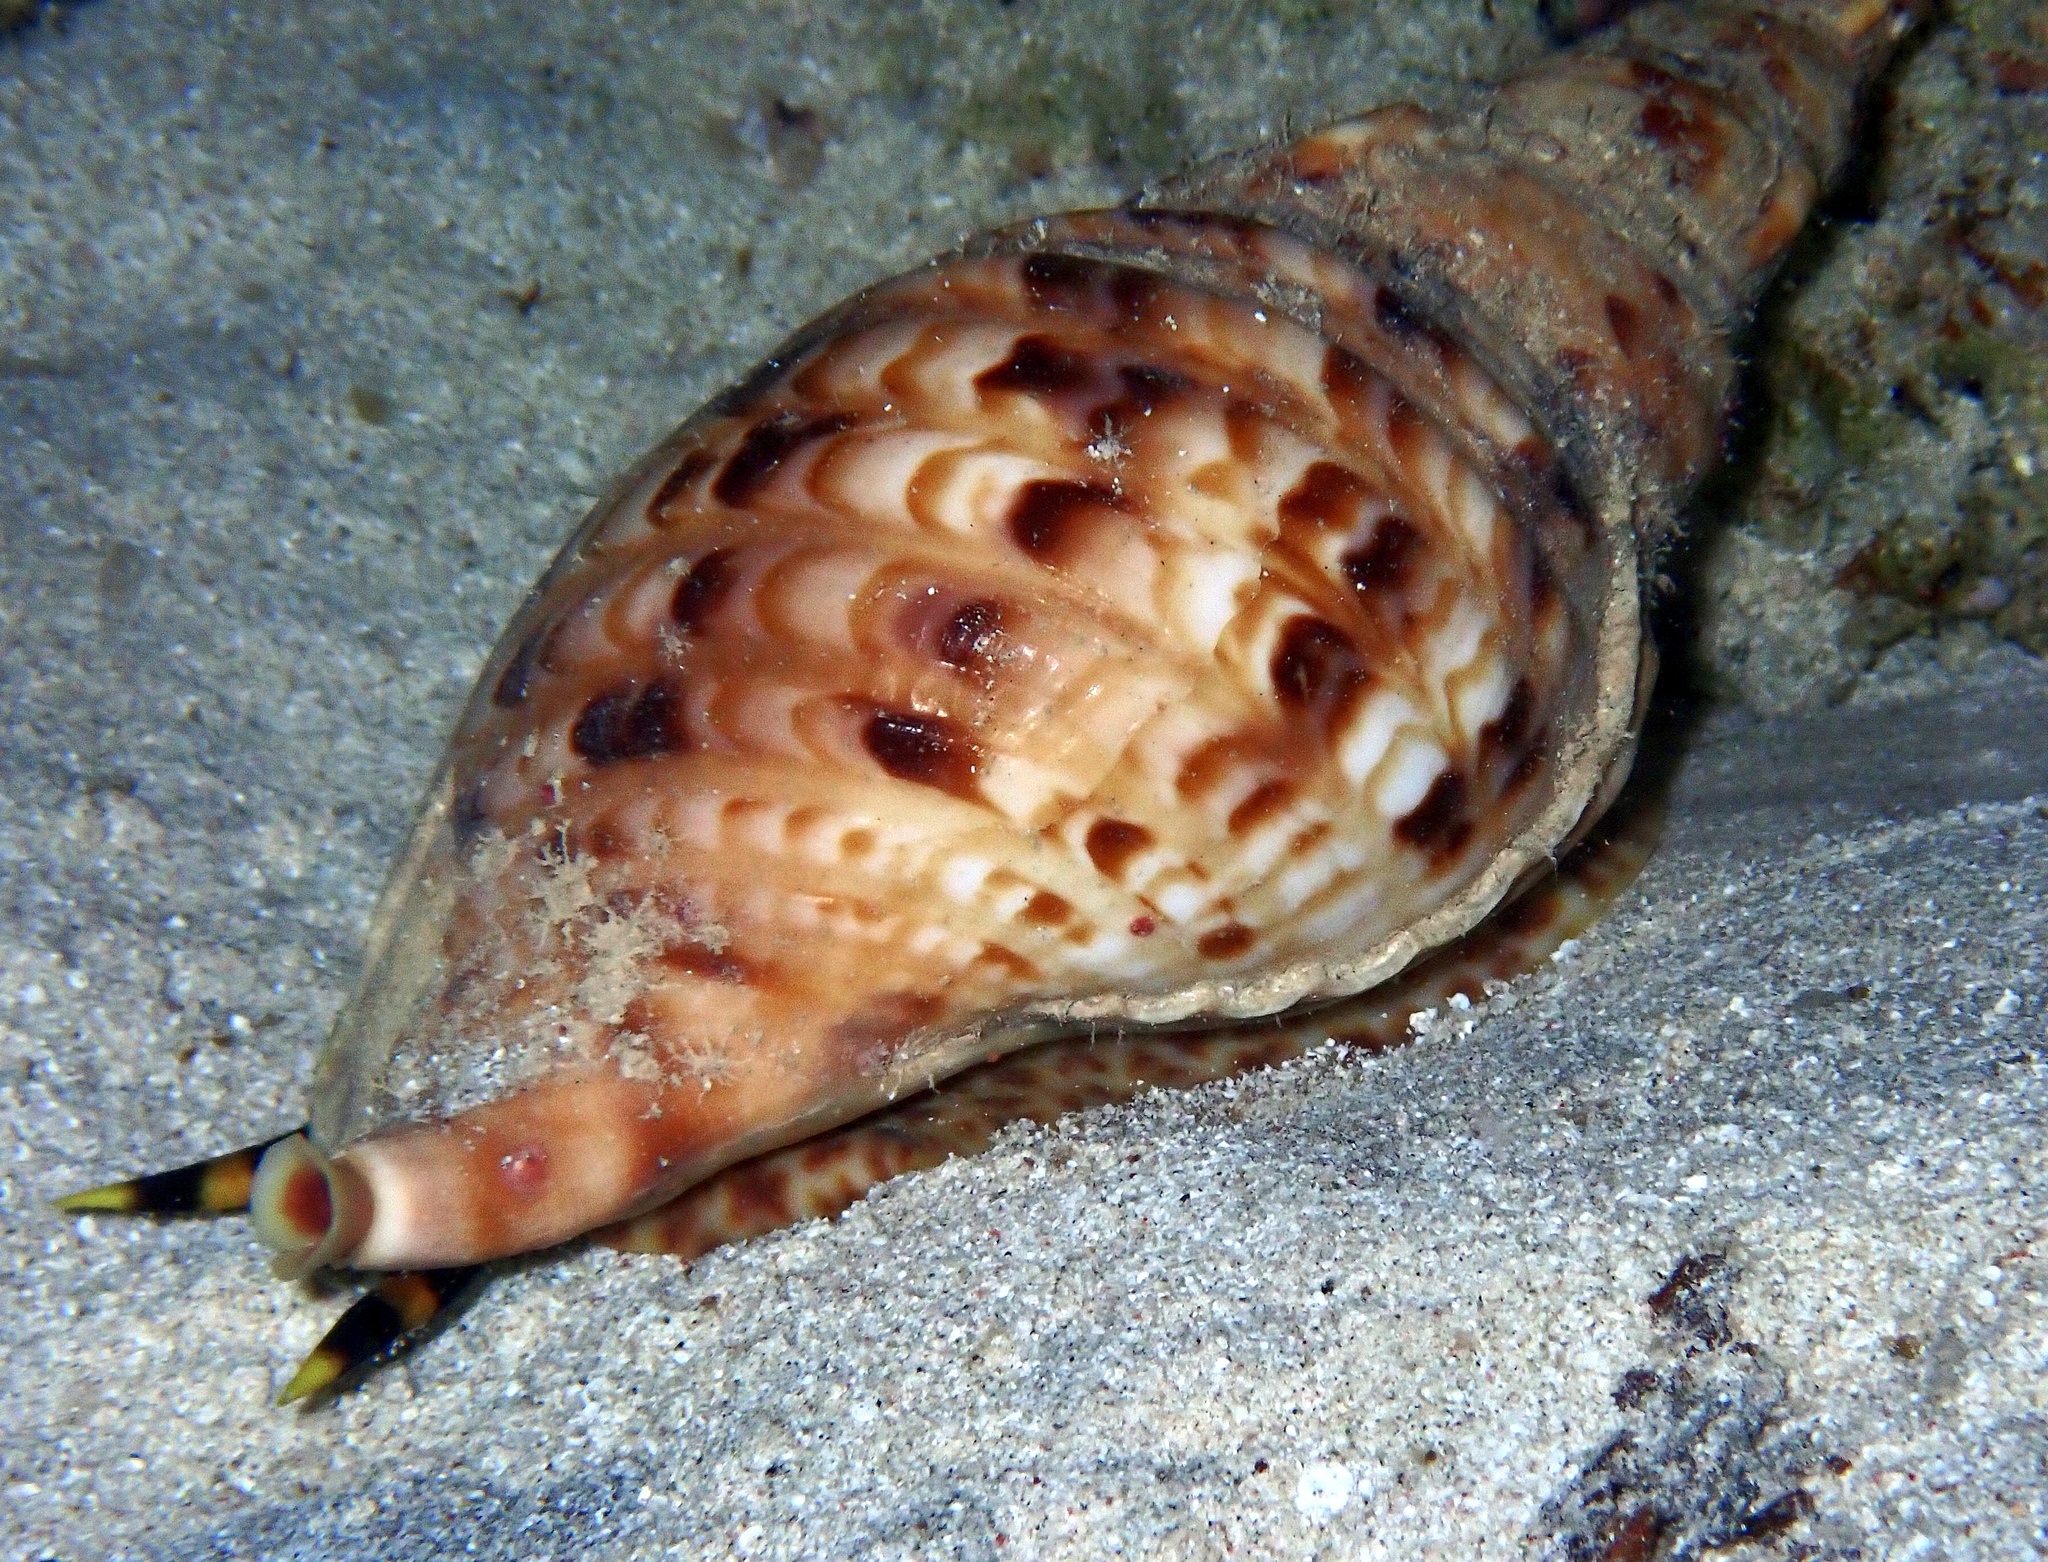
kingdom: Animalia
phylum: Mollusca
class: Gastropoda
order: Littorinimorpha
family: Charoniidae
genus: Charonia
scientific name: Charonia tritonis
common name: Pacific triton
